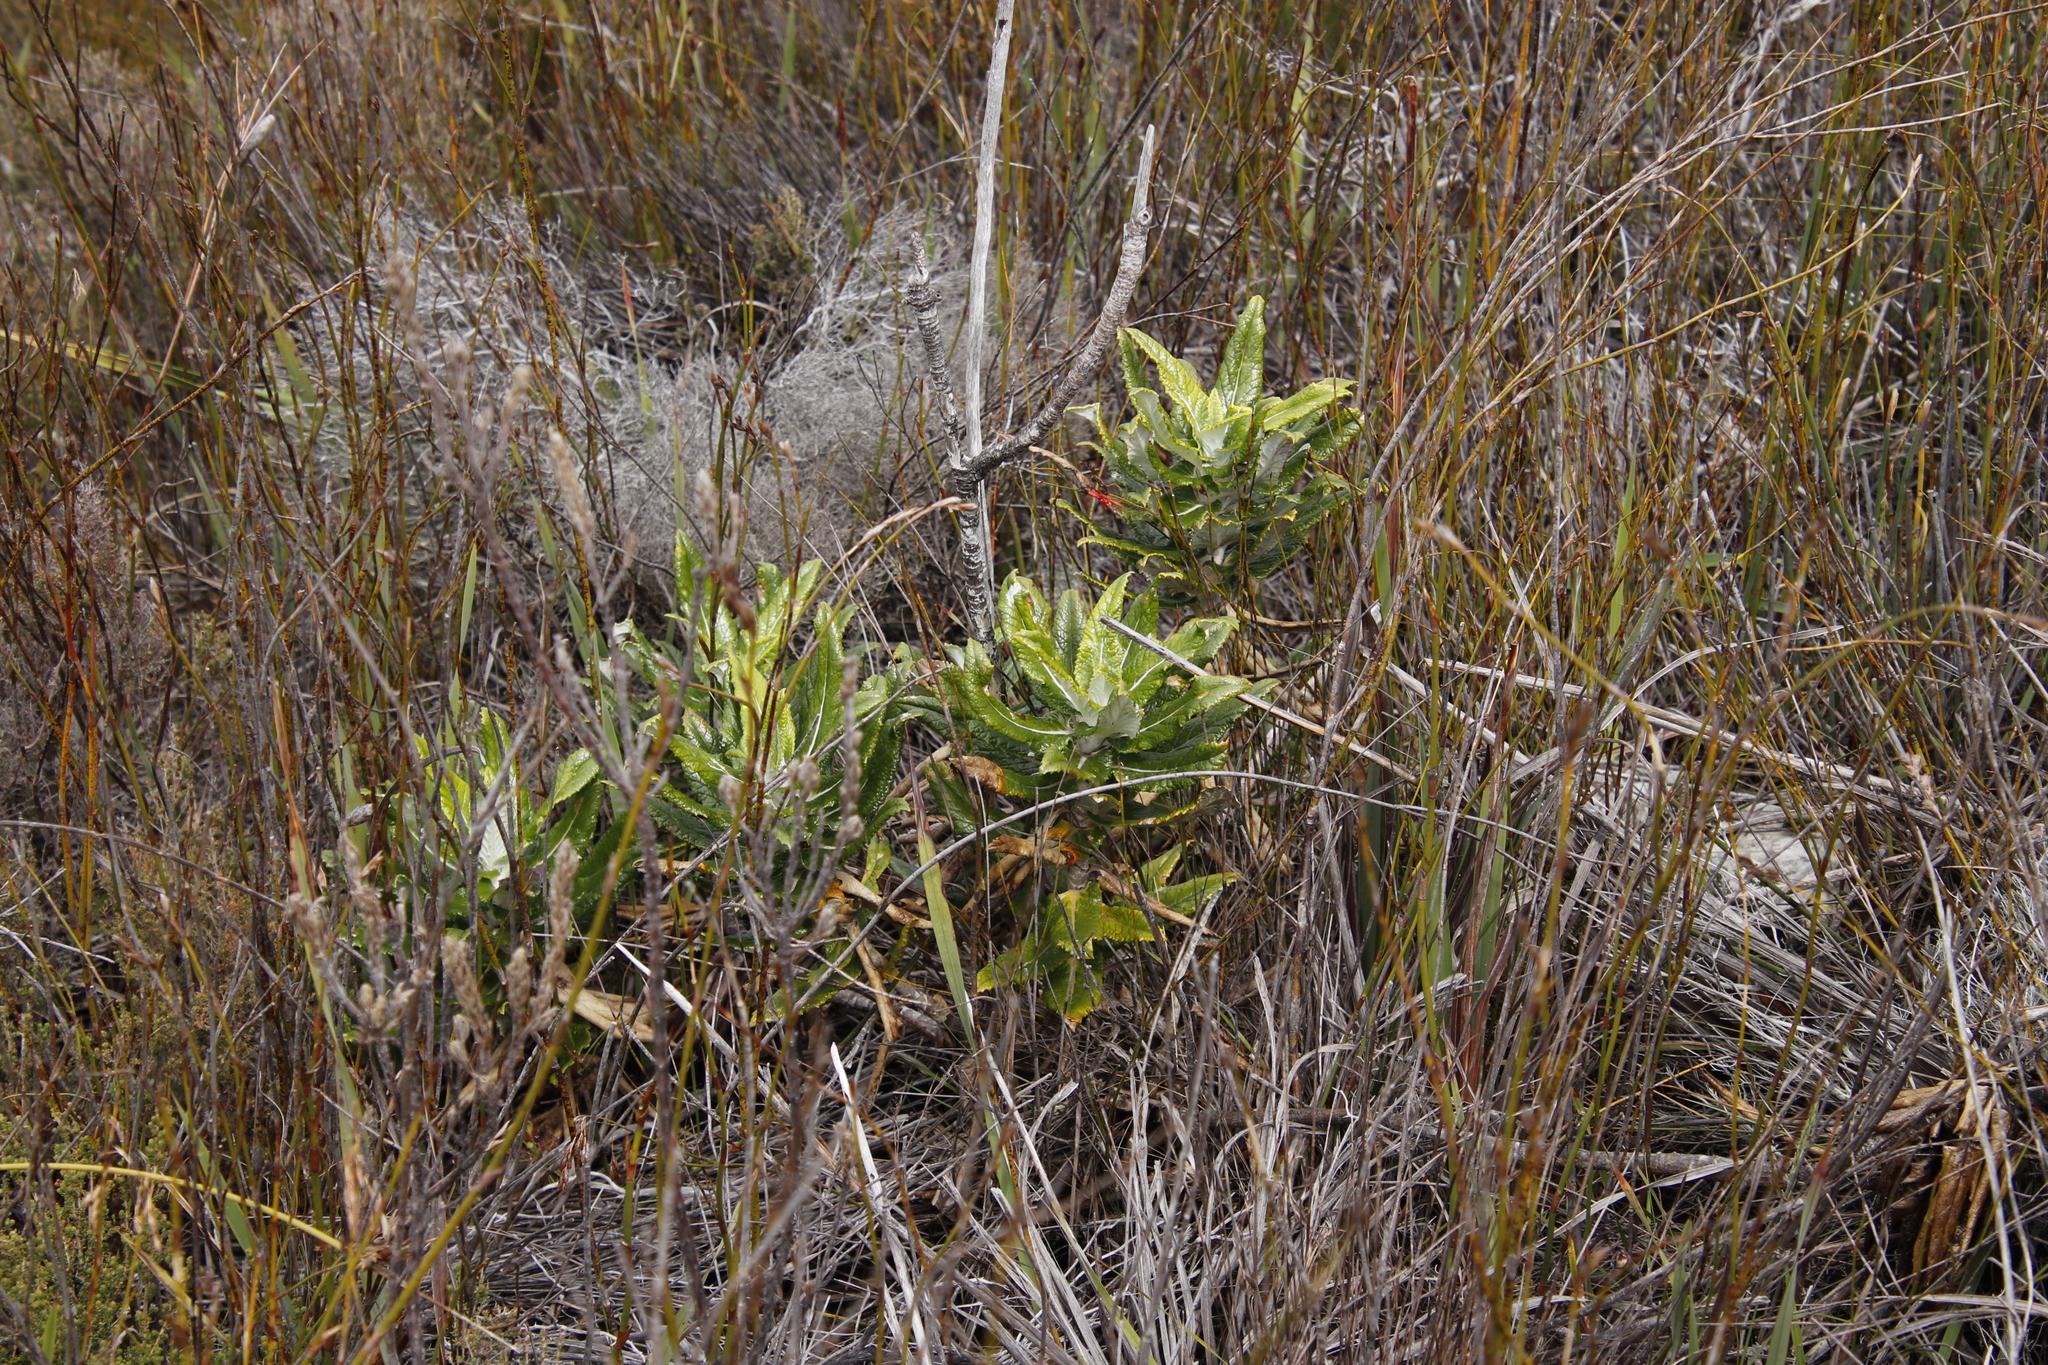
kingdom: Plantae
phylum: Tracheophyta
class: Magnoliopsida
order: Apiales
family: Apiaceae
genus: Hermas
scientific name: Hermas villosa
